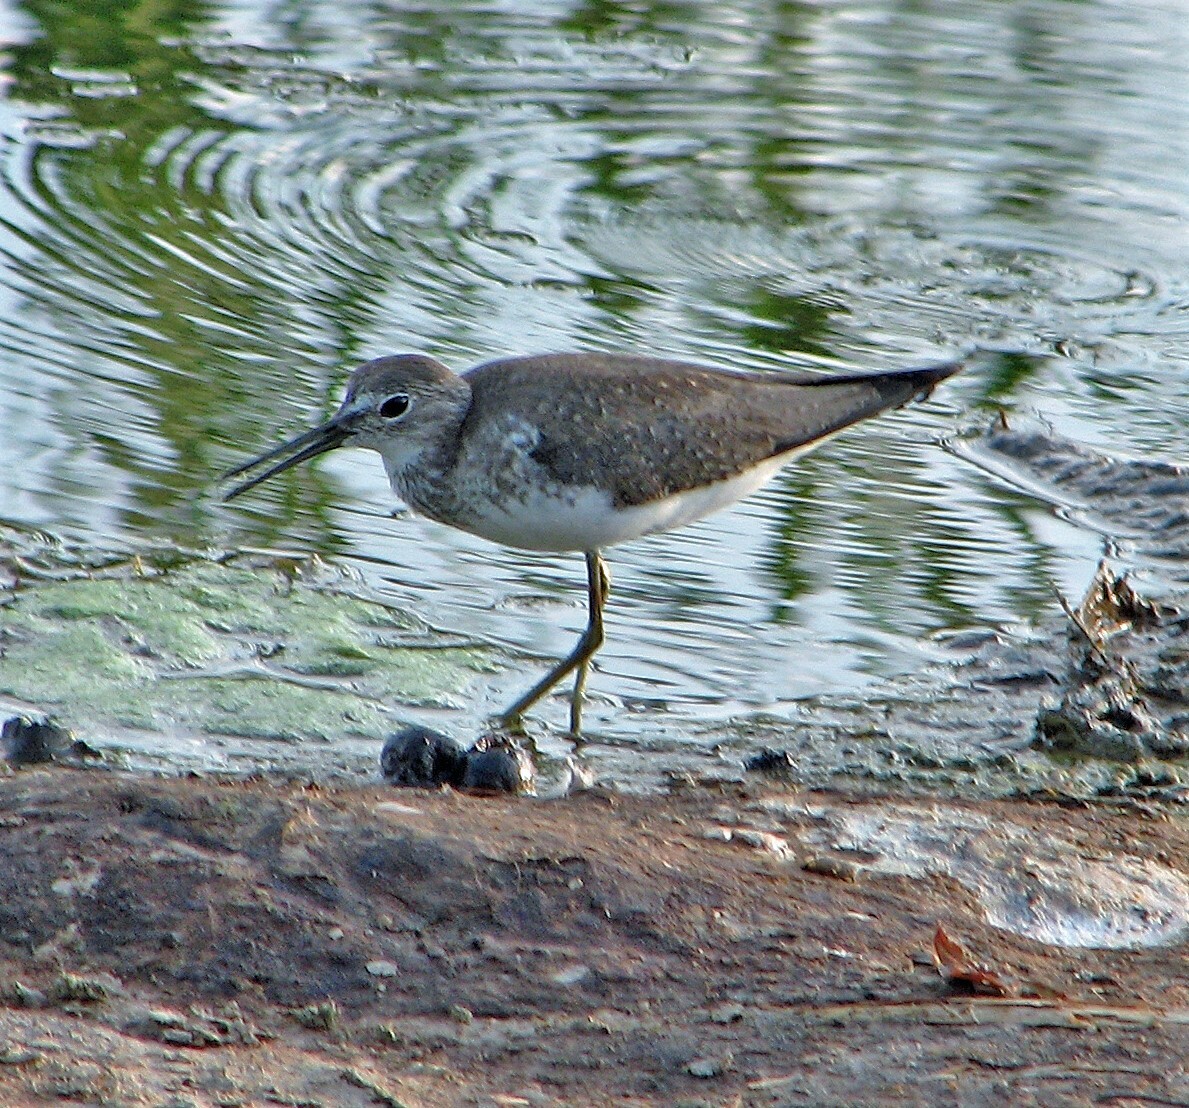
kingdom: Animalia
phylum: Chordata
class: Aves
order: Charadriiformes
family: Scolopacidae
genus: Tringa
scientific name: Tringa solitaria
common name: Solitary sandpiper
